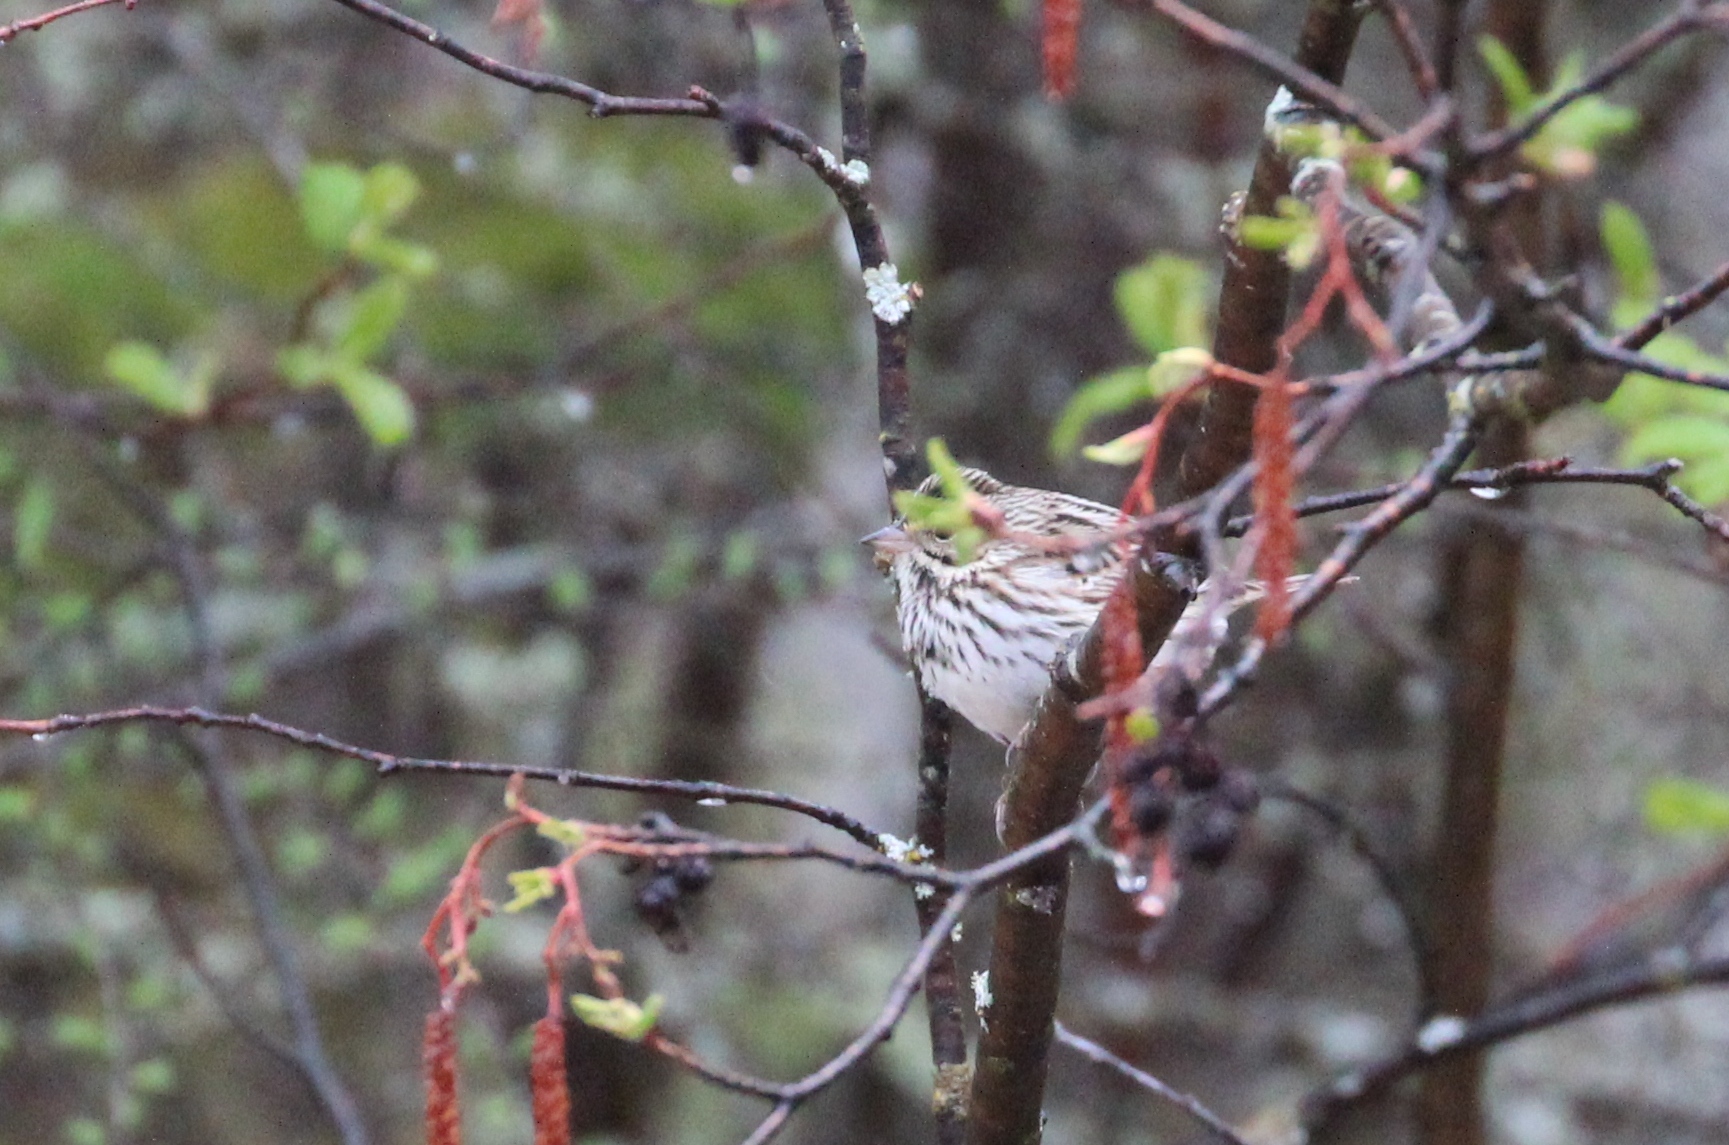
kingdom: Animalia
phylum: Chordata
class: Aves
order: Passeriformes
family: Passerellidae
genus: Passerculus
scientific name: Passerculus sandwichensis
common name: Savannah sparrow
